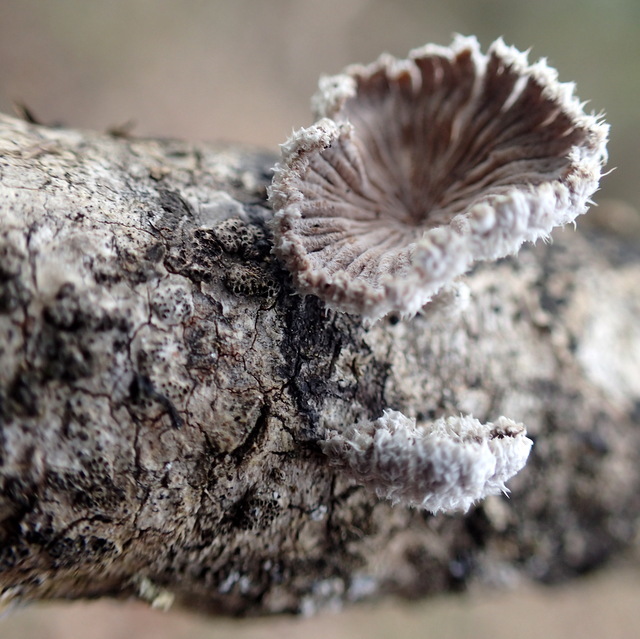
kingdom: Fungi
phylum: Basidiomycota
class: Agaricomycetes
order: Agaricales
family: Schizophyllaceae
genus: Schizophyllum
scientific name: Schizophyllum commune
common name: Common porecrust
